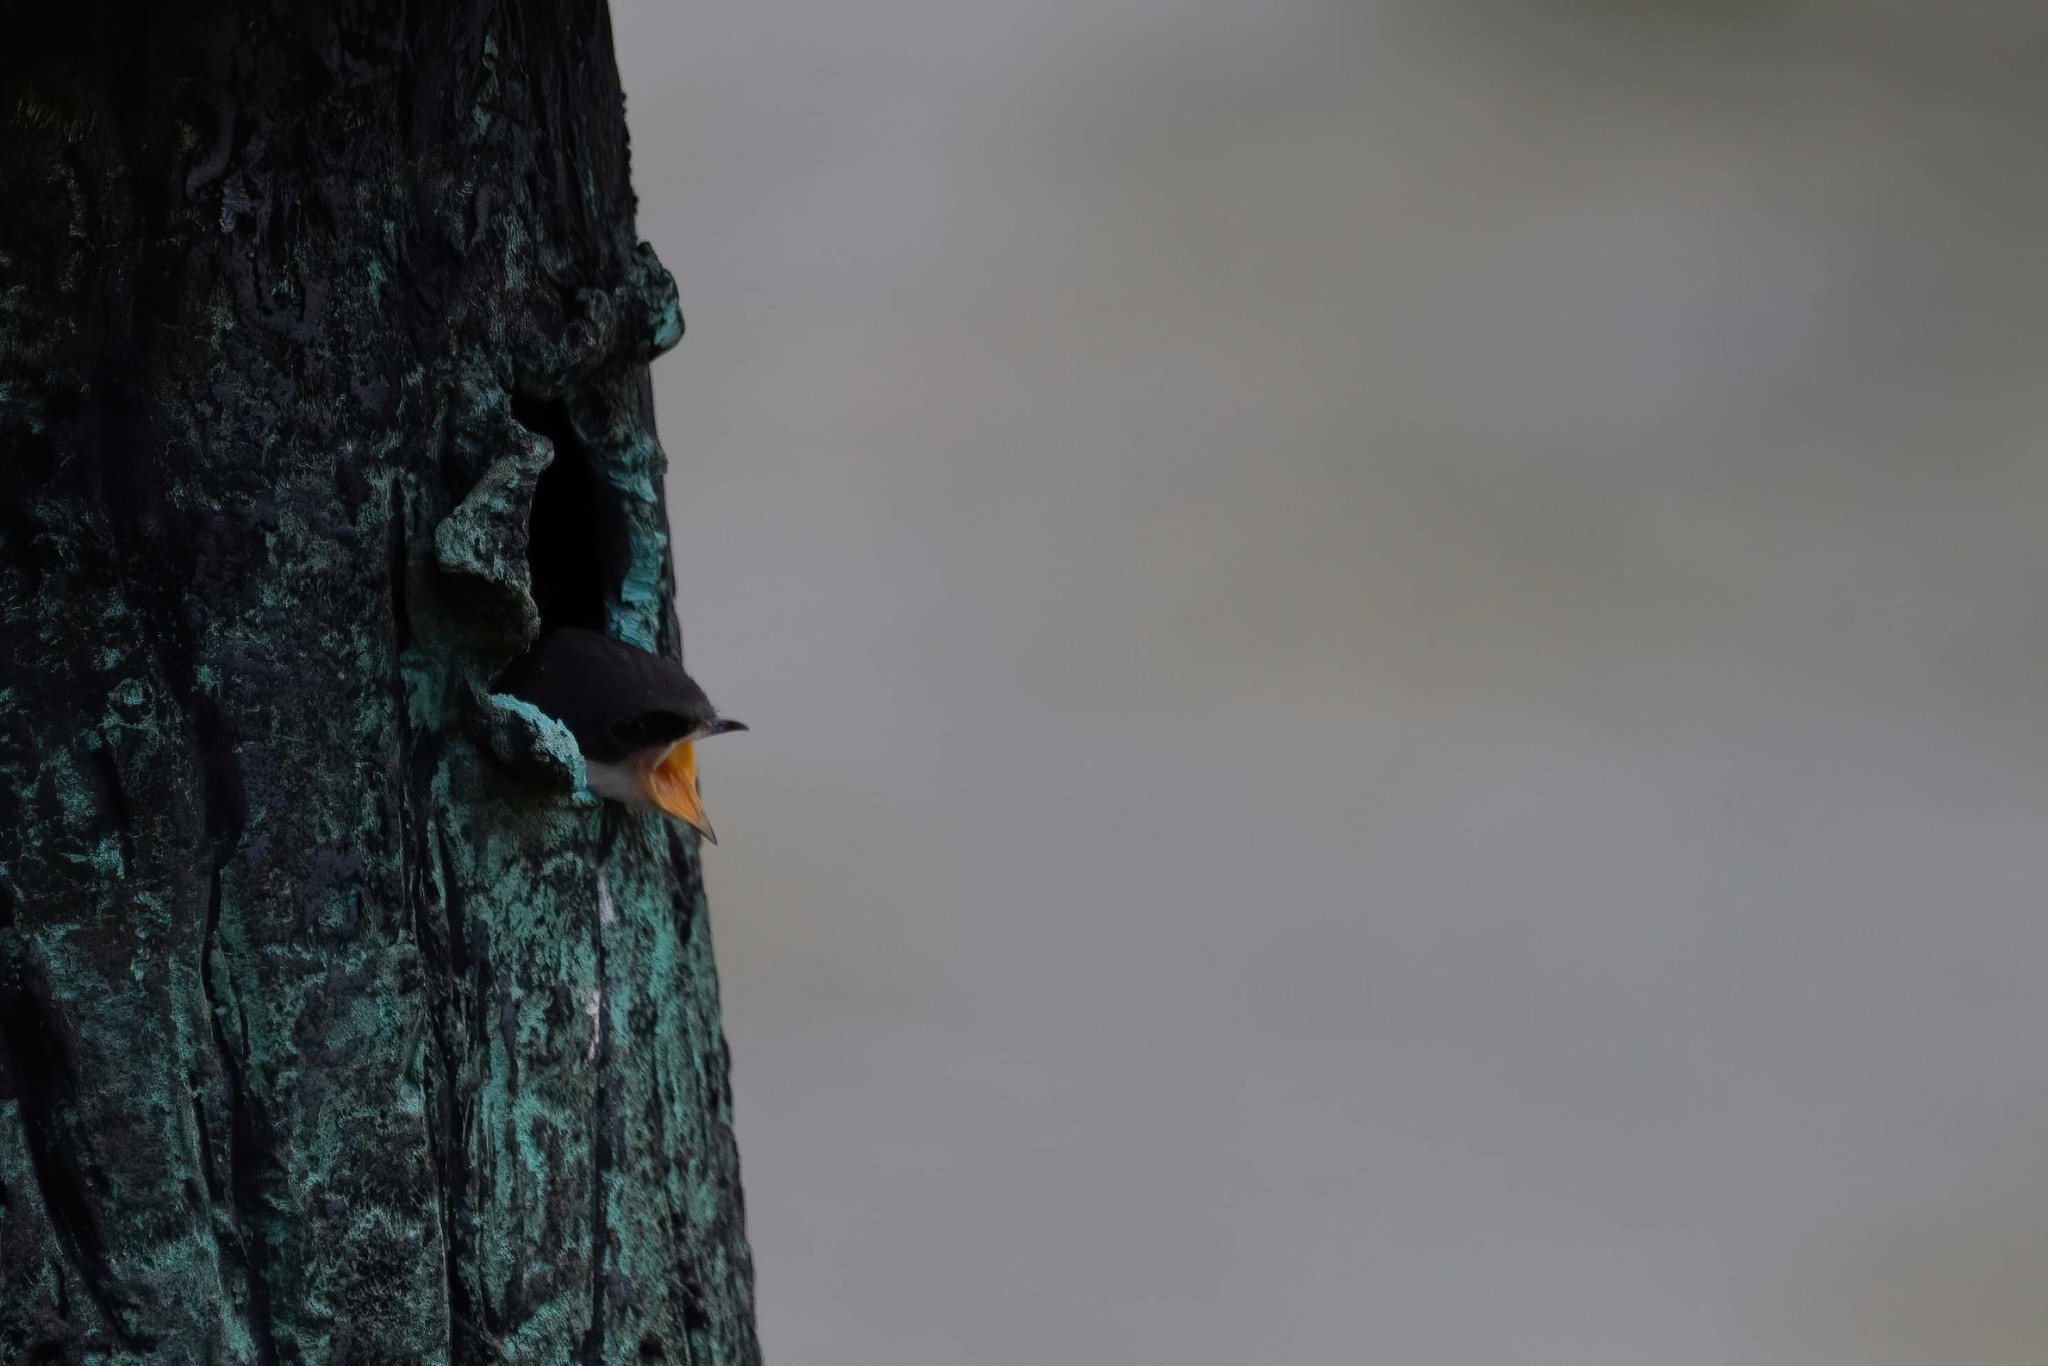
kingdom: Animalia
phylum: Chordata
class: Aves
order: Passeriformes
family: Hirundinidae
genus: Tachycineta
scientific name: Tachycineta bicolor
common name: Tree swallow
